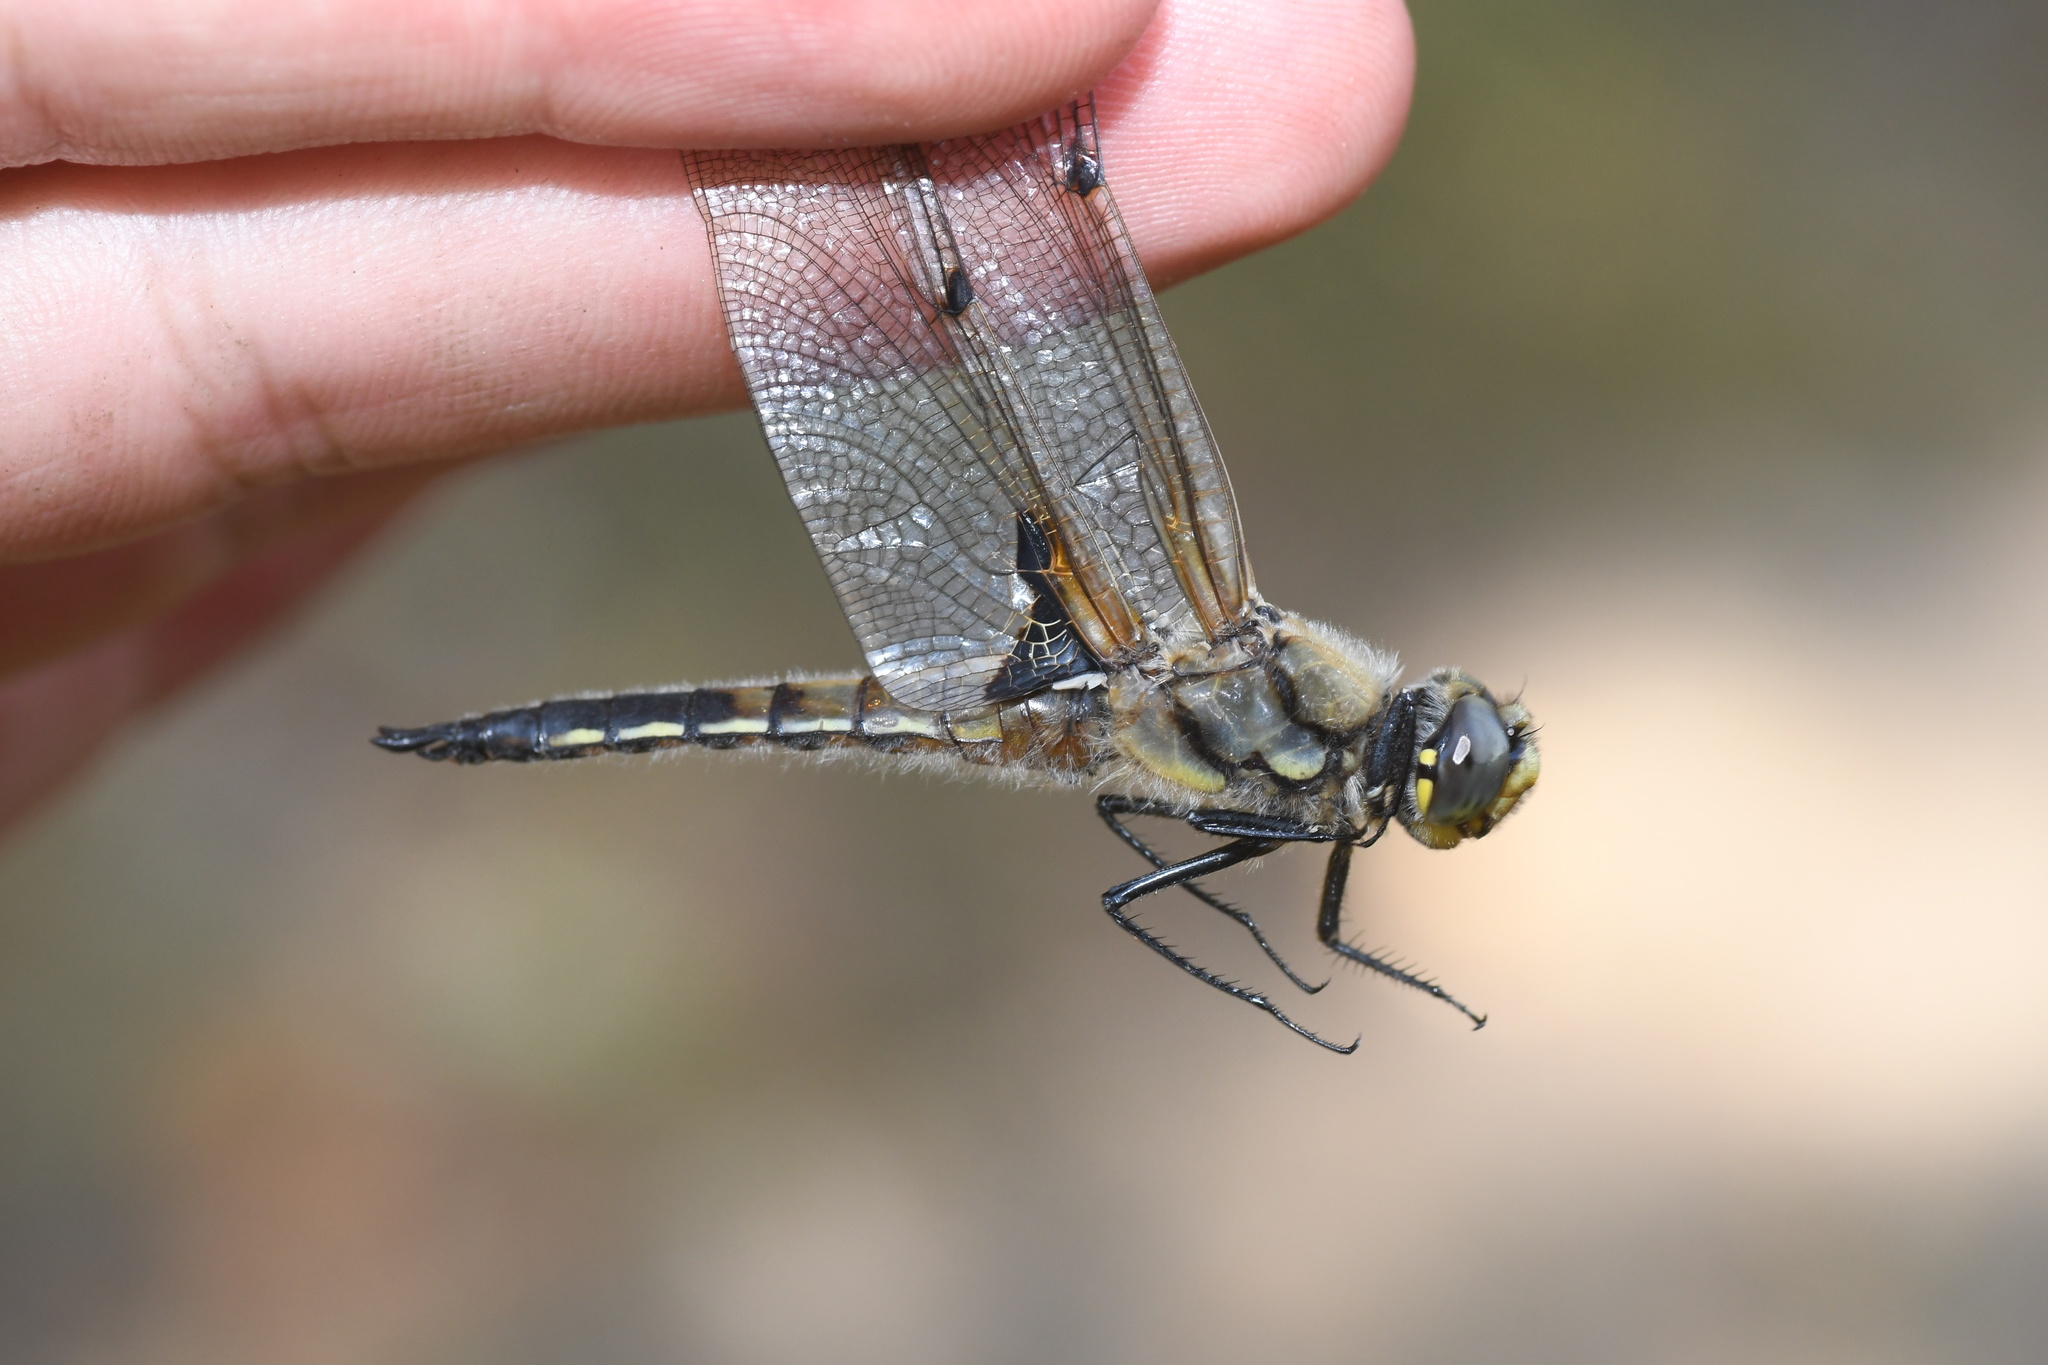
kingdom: Animalia
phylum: Arthropoda
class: Insecta
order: Odonata
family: Libellulidae
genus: Libellula
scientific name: Libellula quadrimaculata
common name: Four-spotted chaser
